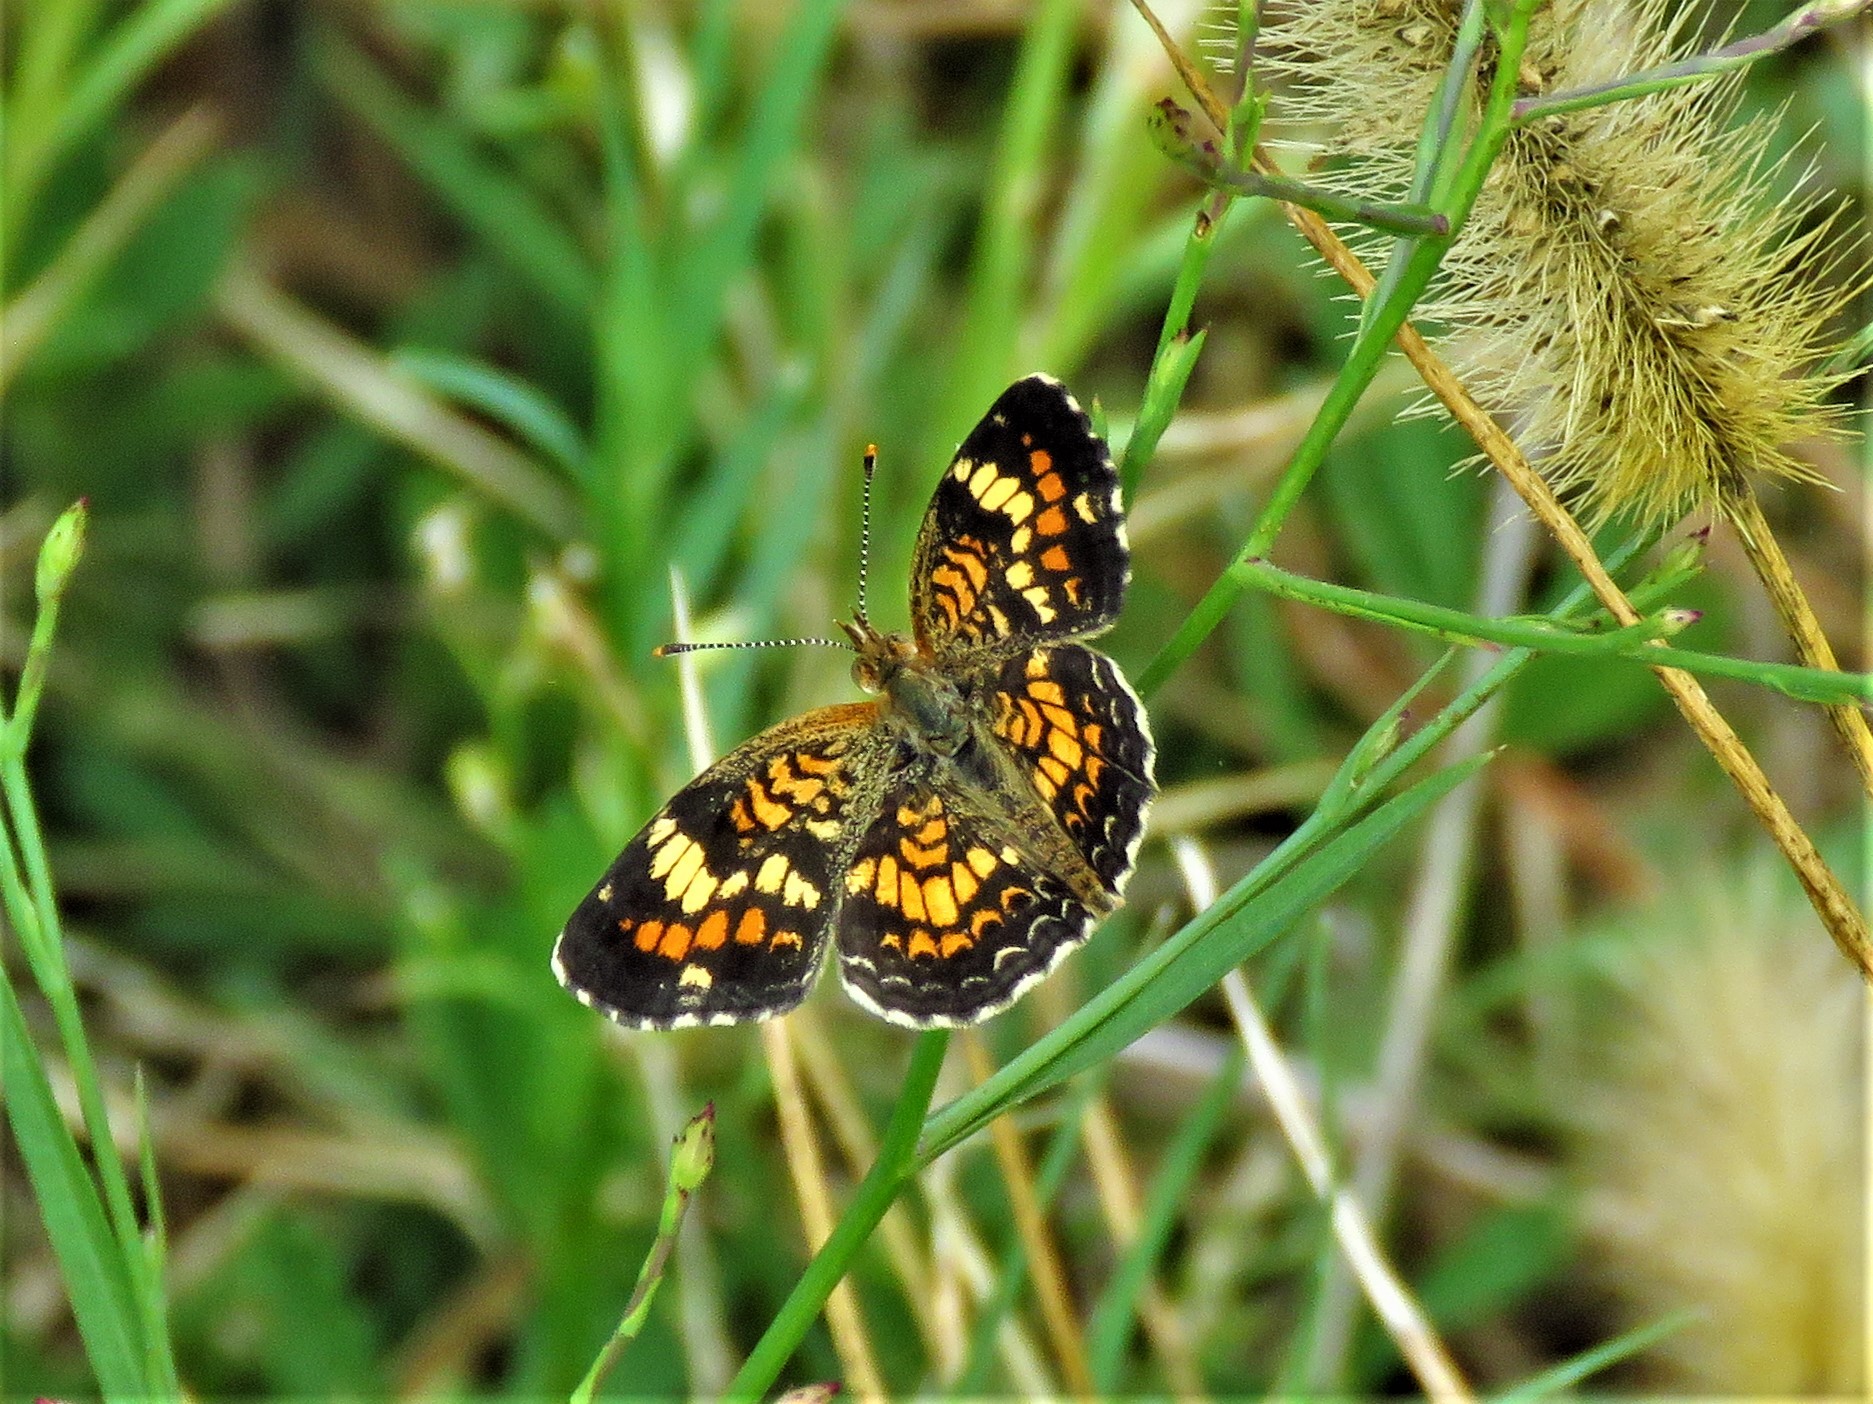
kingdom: Animalia
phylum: Arthropoda
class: Insecta
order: Lepidoptera
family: Nymphalidae
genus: Phyciodes
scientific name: Phyciodes phaon
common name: Phaon crescent
